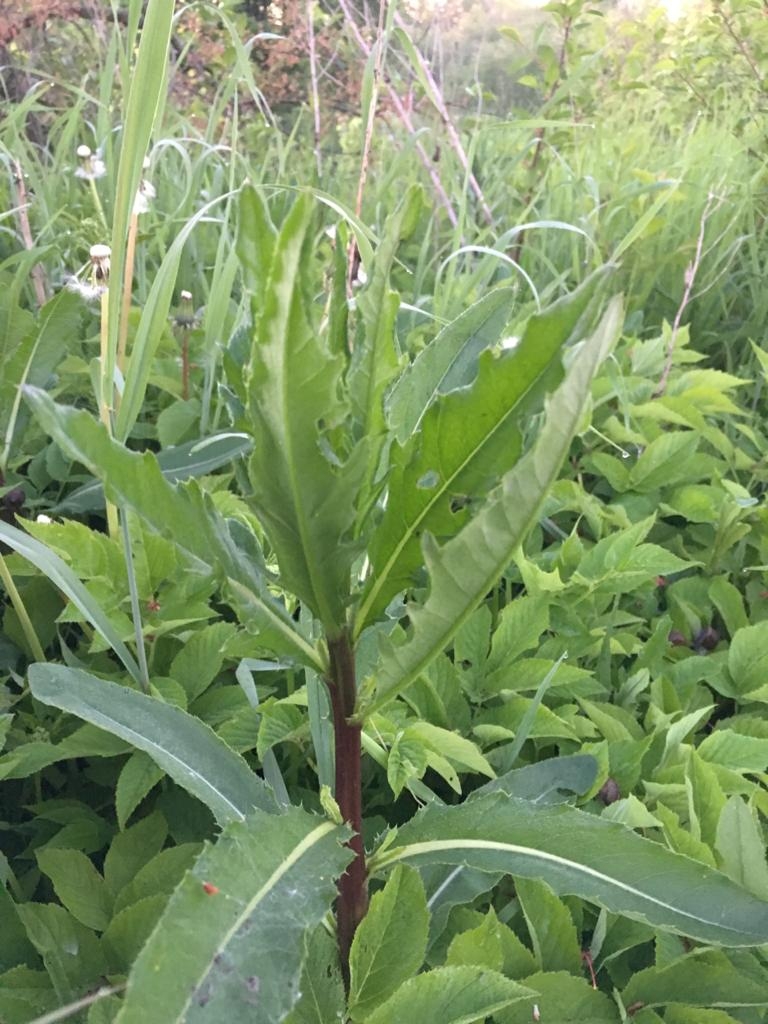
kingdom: Plantae
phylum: Tracheophyta
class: Magnoliopsida
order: Asterales
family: Asteraceae
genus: Cirsium
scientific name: Cirsium arvense
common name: Creeping thistle
